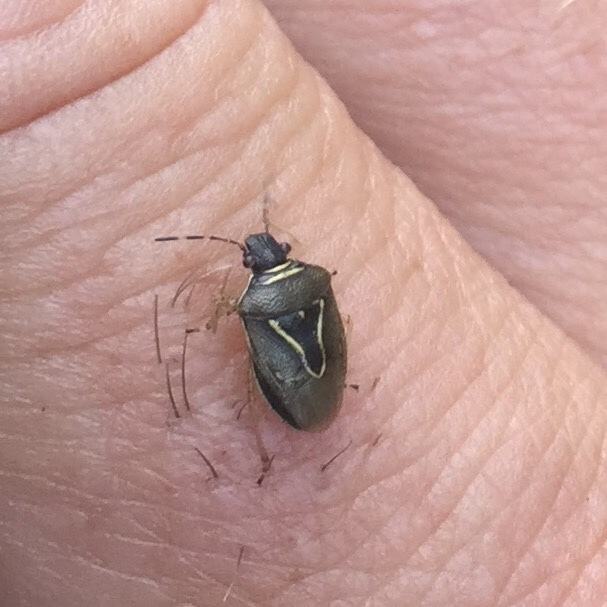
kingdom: Animalia
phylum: Arthropoda
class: Insecta
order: Hemiptera
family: Pentatomidae
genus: Mormidea
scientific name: Mormidea lugens
